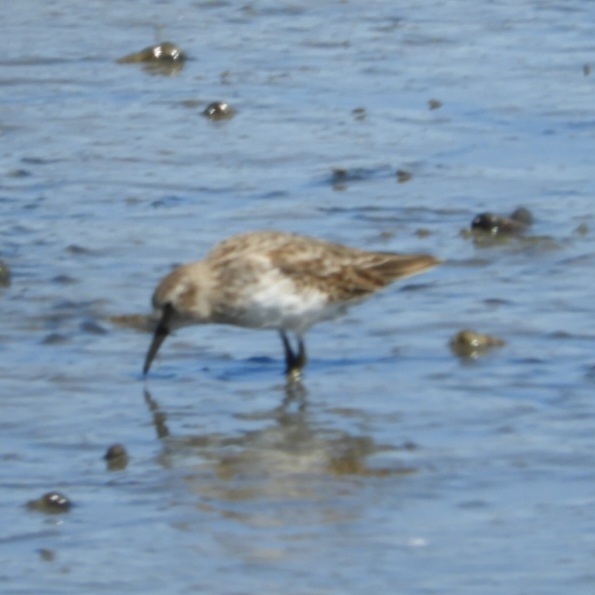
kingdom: Animalia
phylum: Chordata
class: Aves
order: Charadriiformes
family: Scolopacidae
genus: Calidris
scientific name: Calidris minutilla
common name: Least sandpiper
